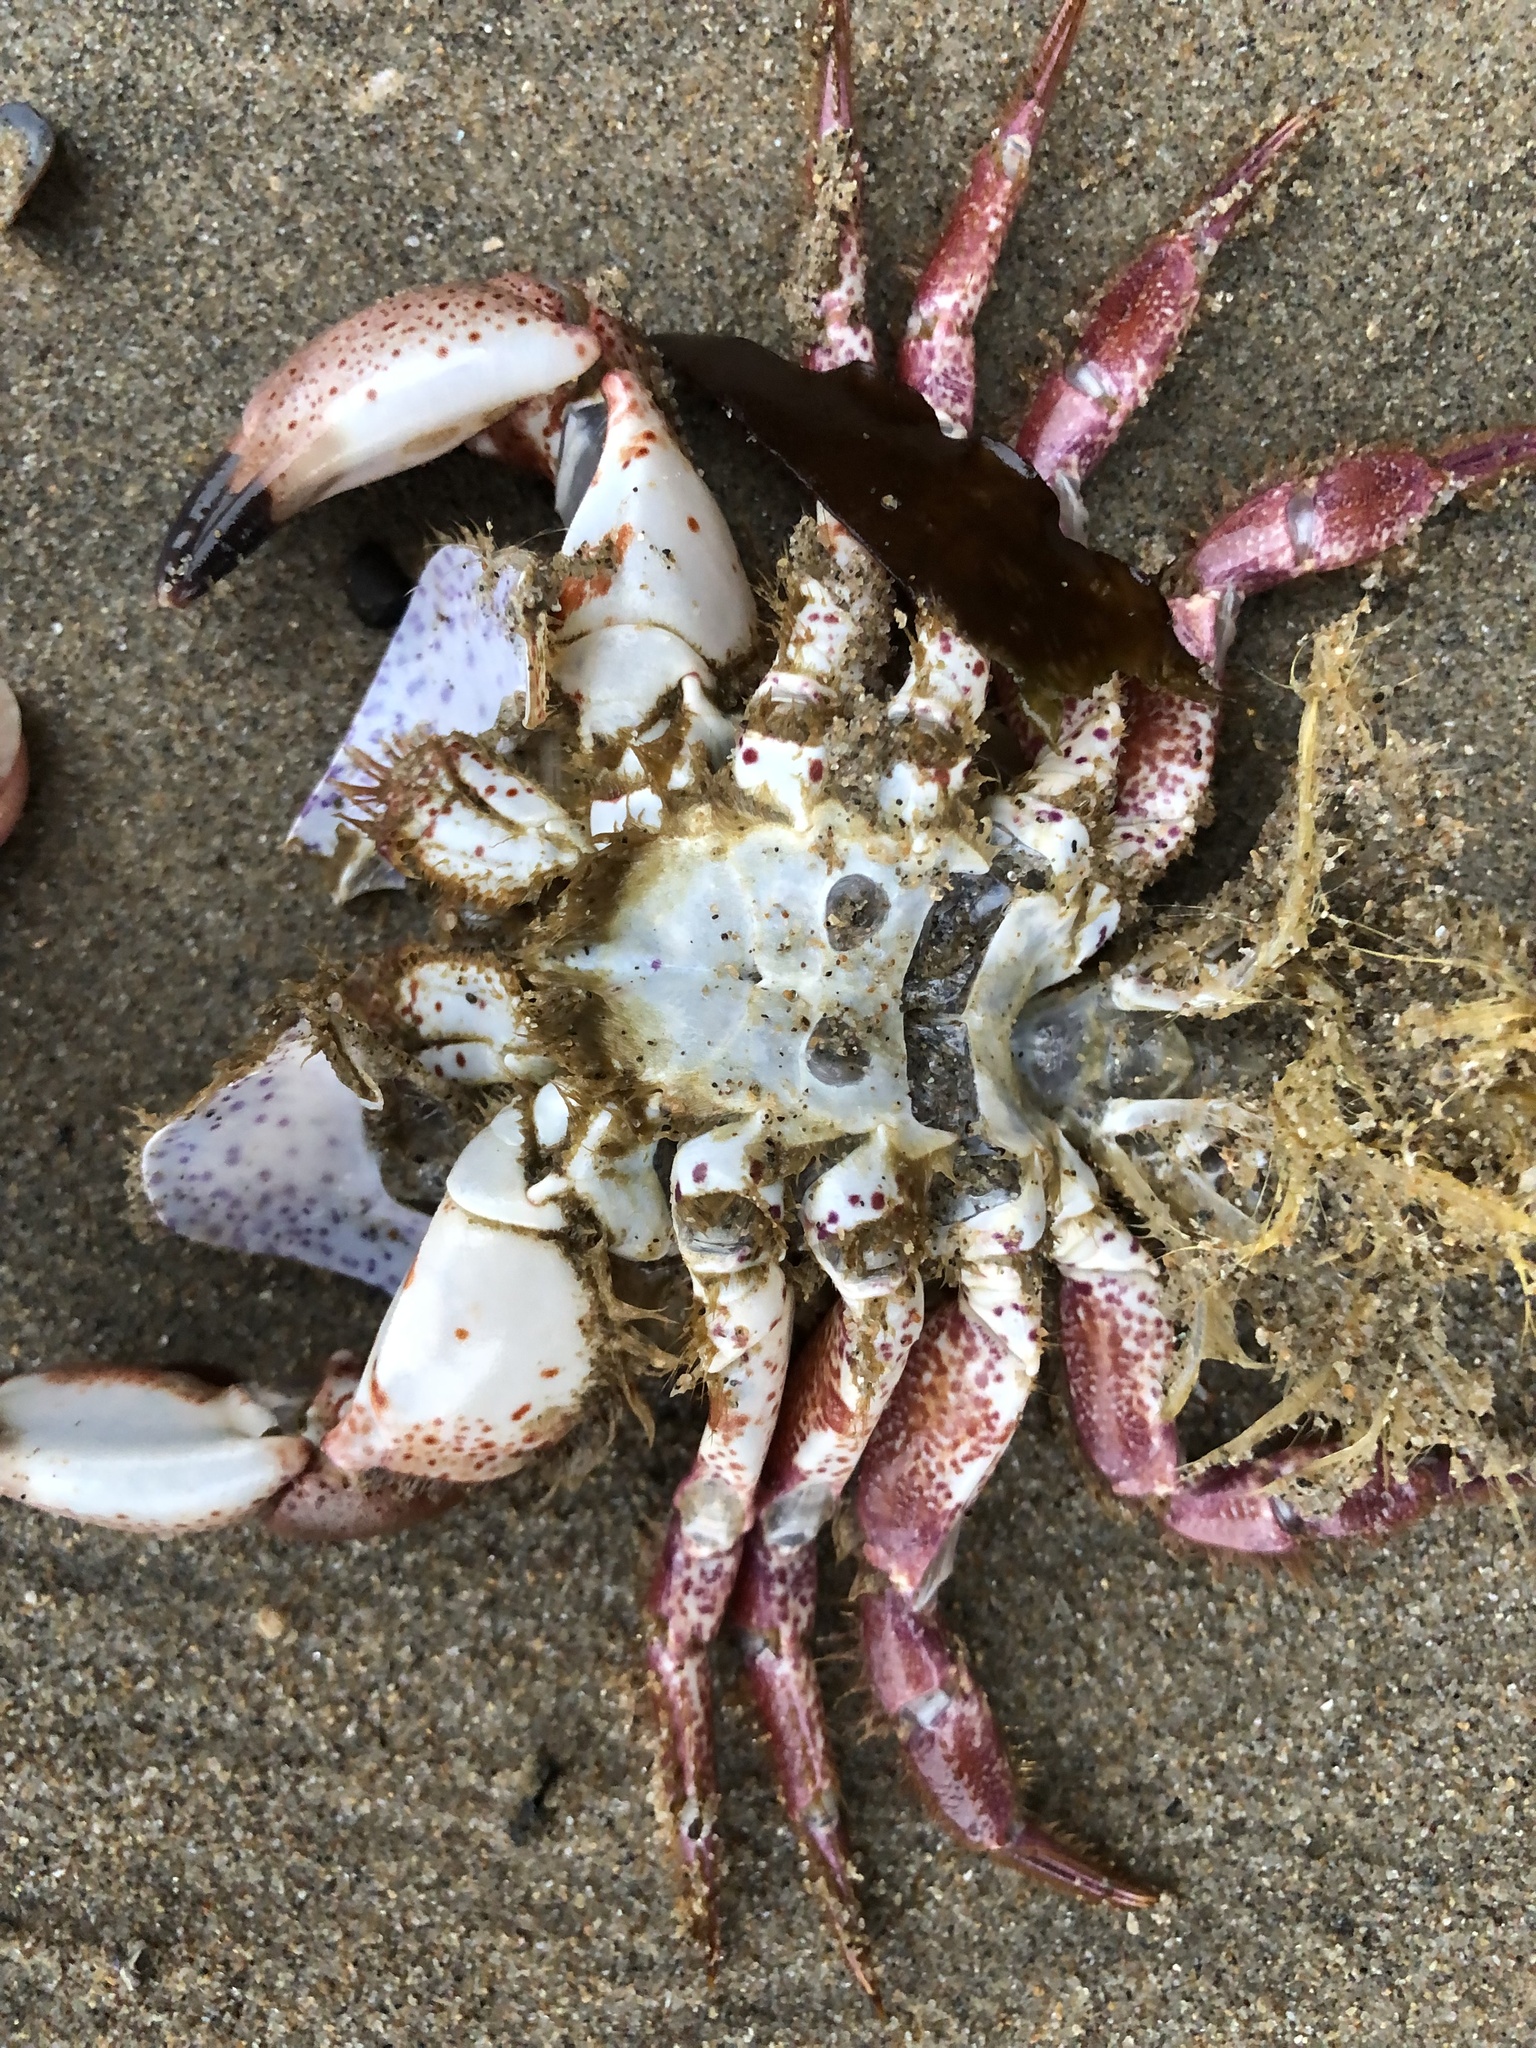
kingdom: Animalia
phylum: Arthropoda
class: Malacostraca
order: Decapoda
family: Cancridae
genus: Romaleon
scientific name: Romaleon antennarium
